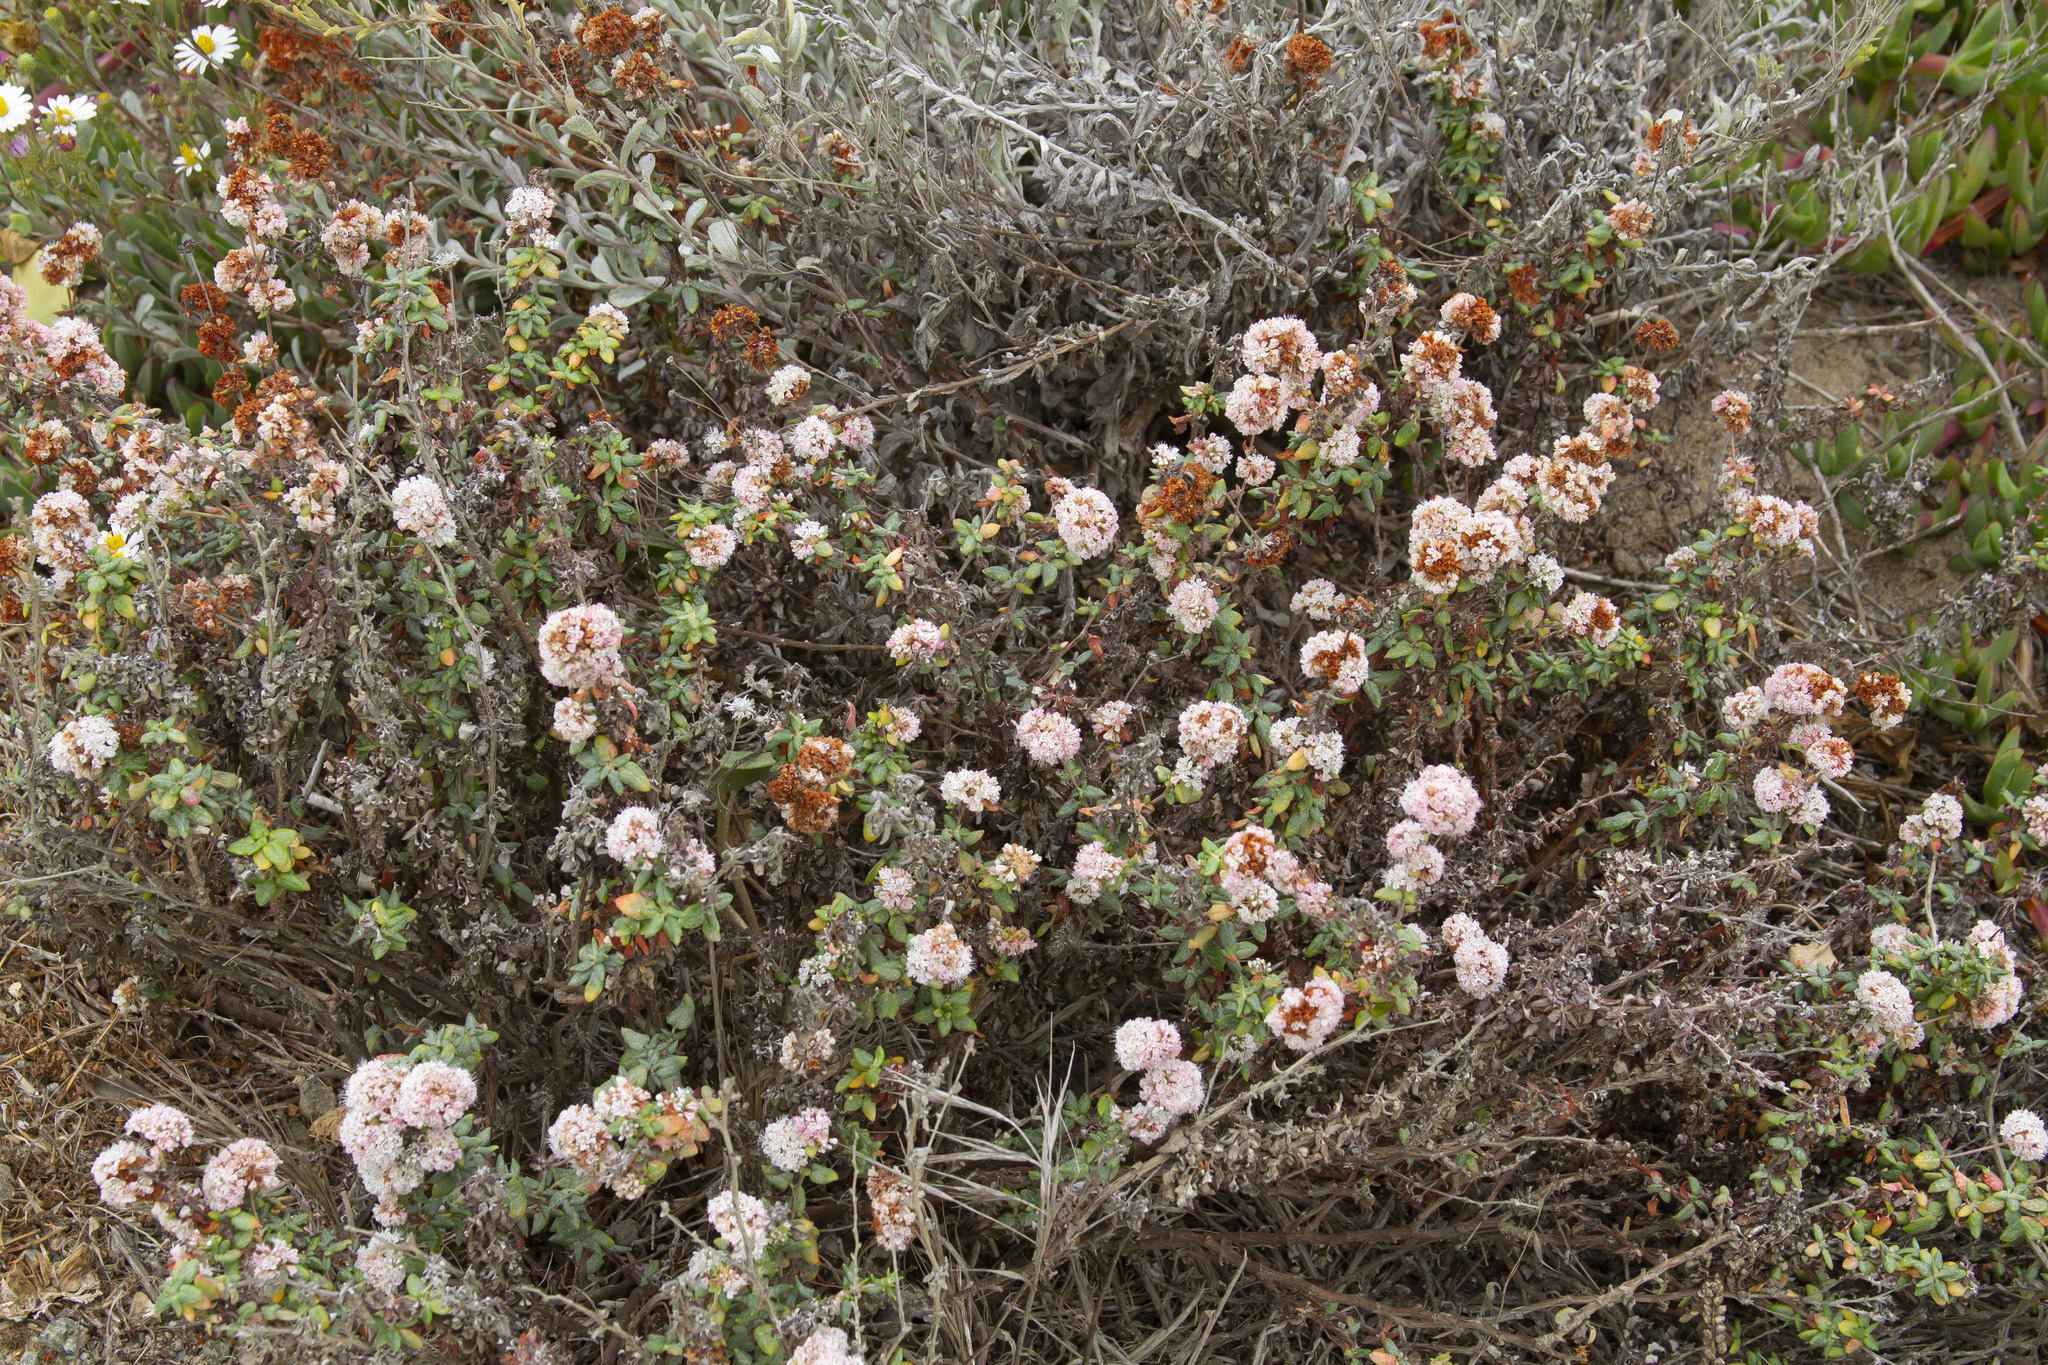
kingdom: Plantae
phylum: Tracheophyta
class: Magnoliopsida
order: Caryophyllales
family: Polygonaceae
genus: Eriogonum
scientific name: Eriogonum parvifolium
